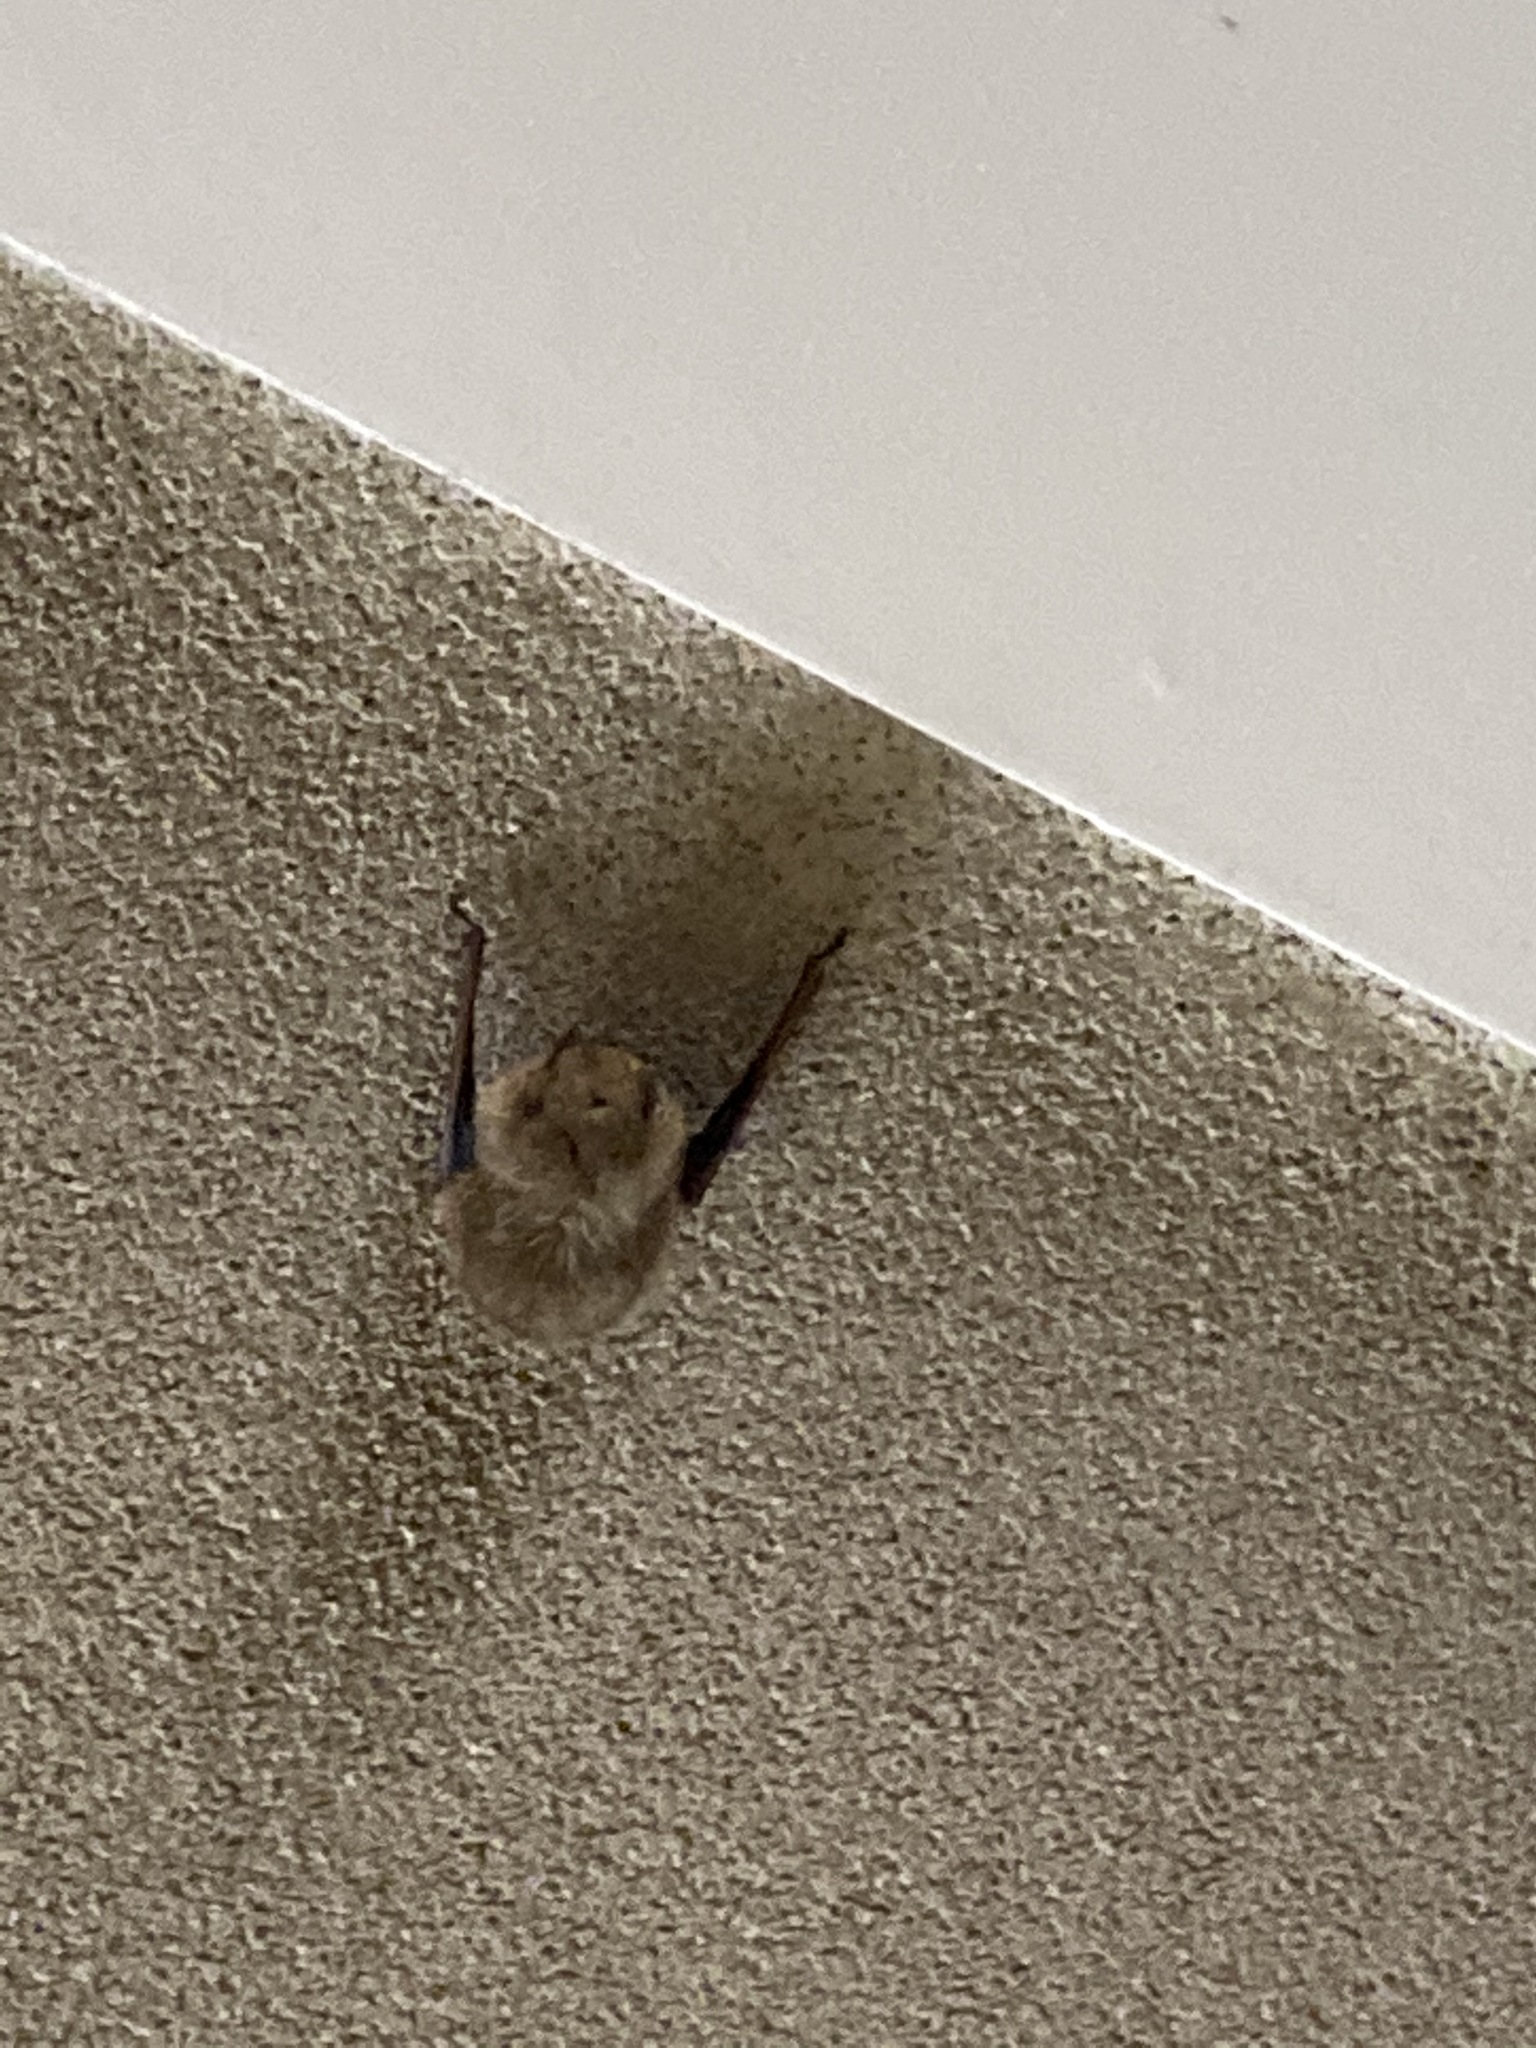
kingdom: Animalia
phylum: Chordata
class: Mammalia
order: Chiroptera
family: Vespertilionidae
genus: Perimyotis
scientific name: Perimyotis subflavus
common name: Eastern pipistrelle
